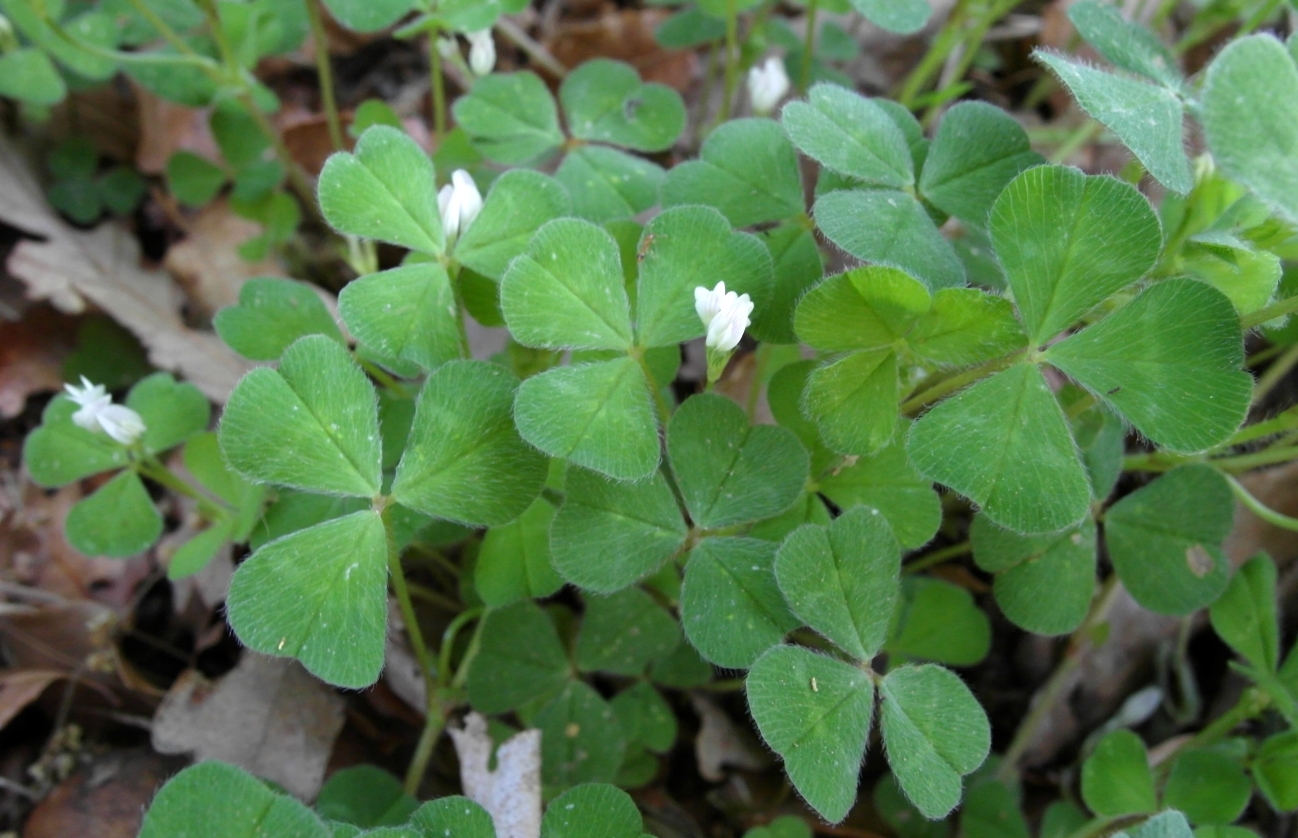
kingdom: Plantae
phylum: Tracheophyta
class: Magnoliopsida
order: Fabales
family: Fabaceae
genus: Trifolium
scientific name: Trifolium subterraneum
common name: Subterranean clover
